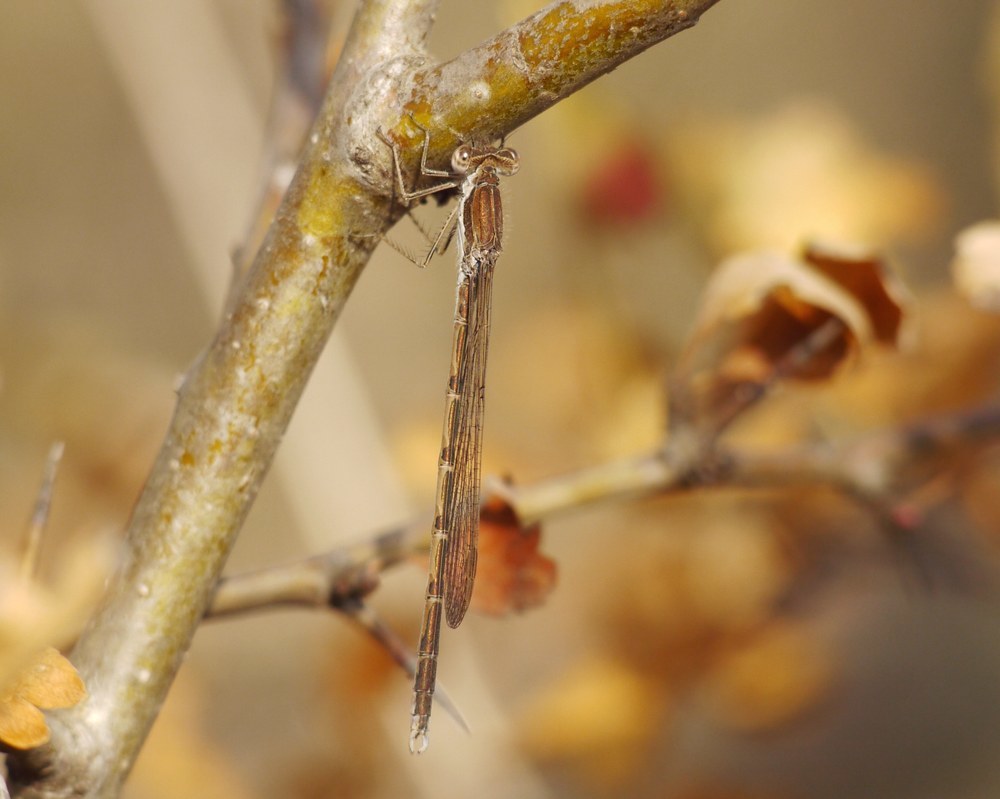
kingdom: Animalia
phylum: Arthropoda
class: Insecta
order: Odonata
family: Lestidae
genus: Sympecma
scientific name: Sympecma fusca
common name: Common winter damsel
